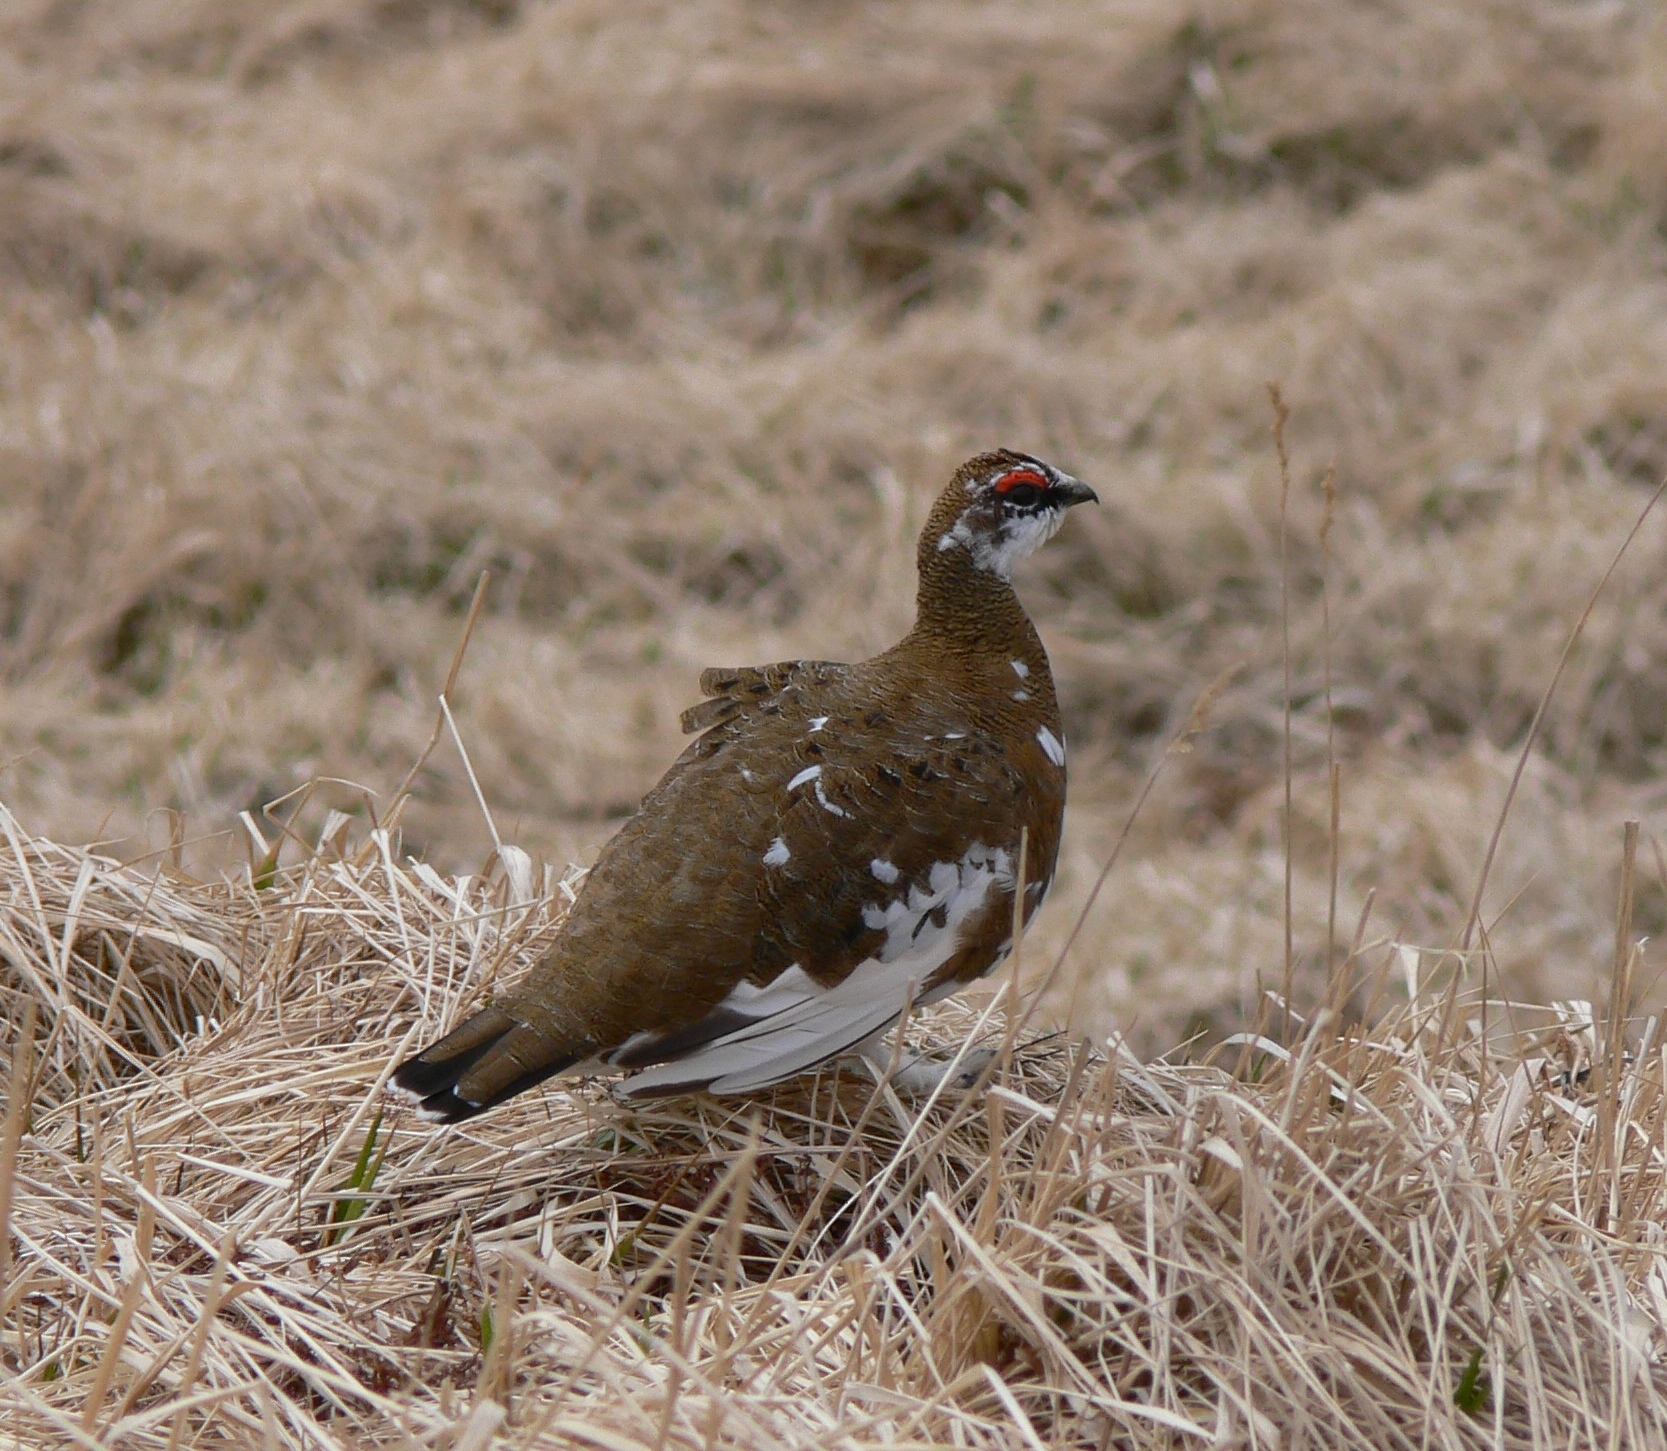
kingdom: Animalia
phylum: Chordata
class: Aves
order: Galliformes
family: Phasianidae
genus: Lagopus
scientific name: Lagopus muta
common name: Rock ptarmigan
